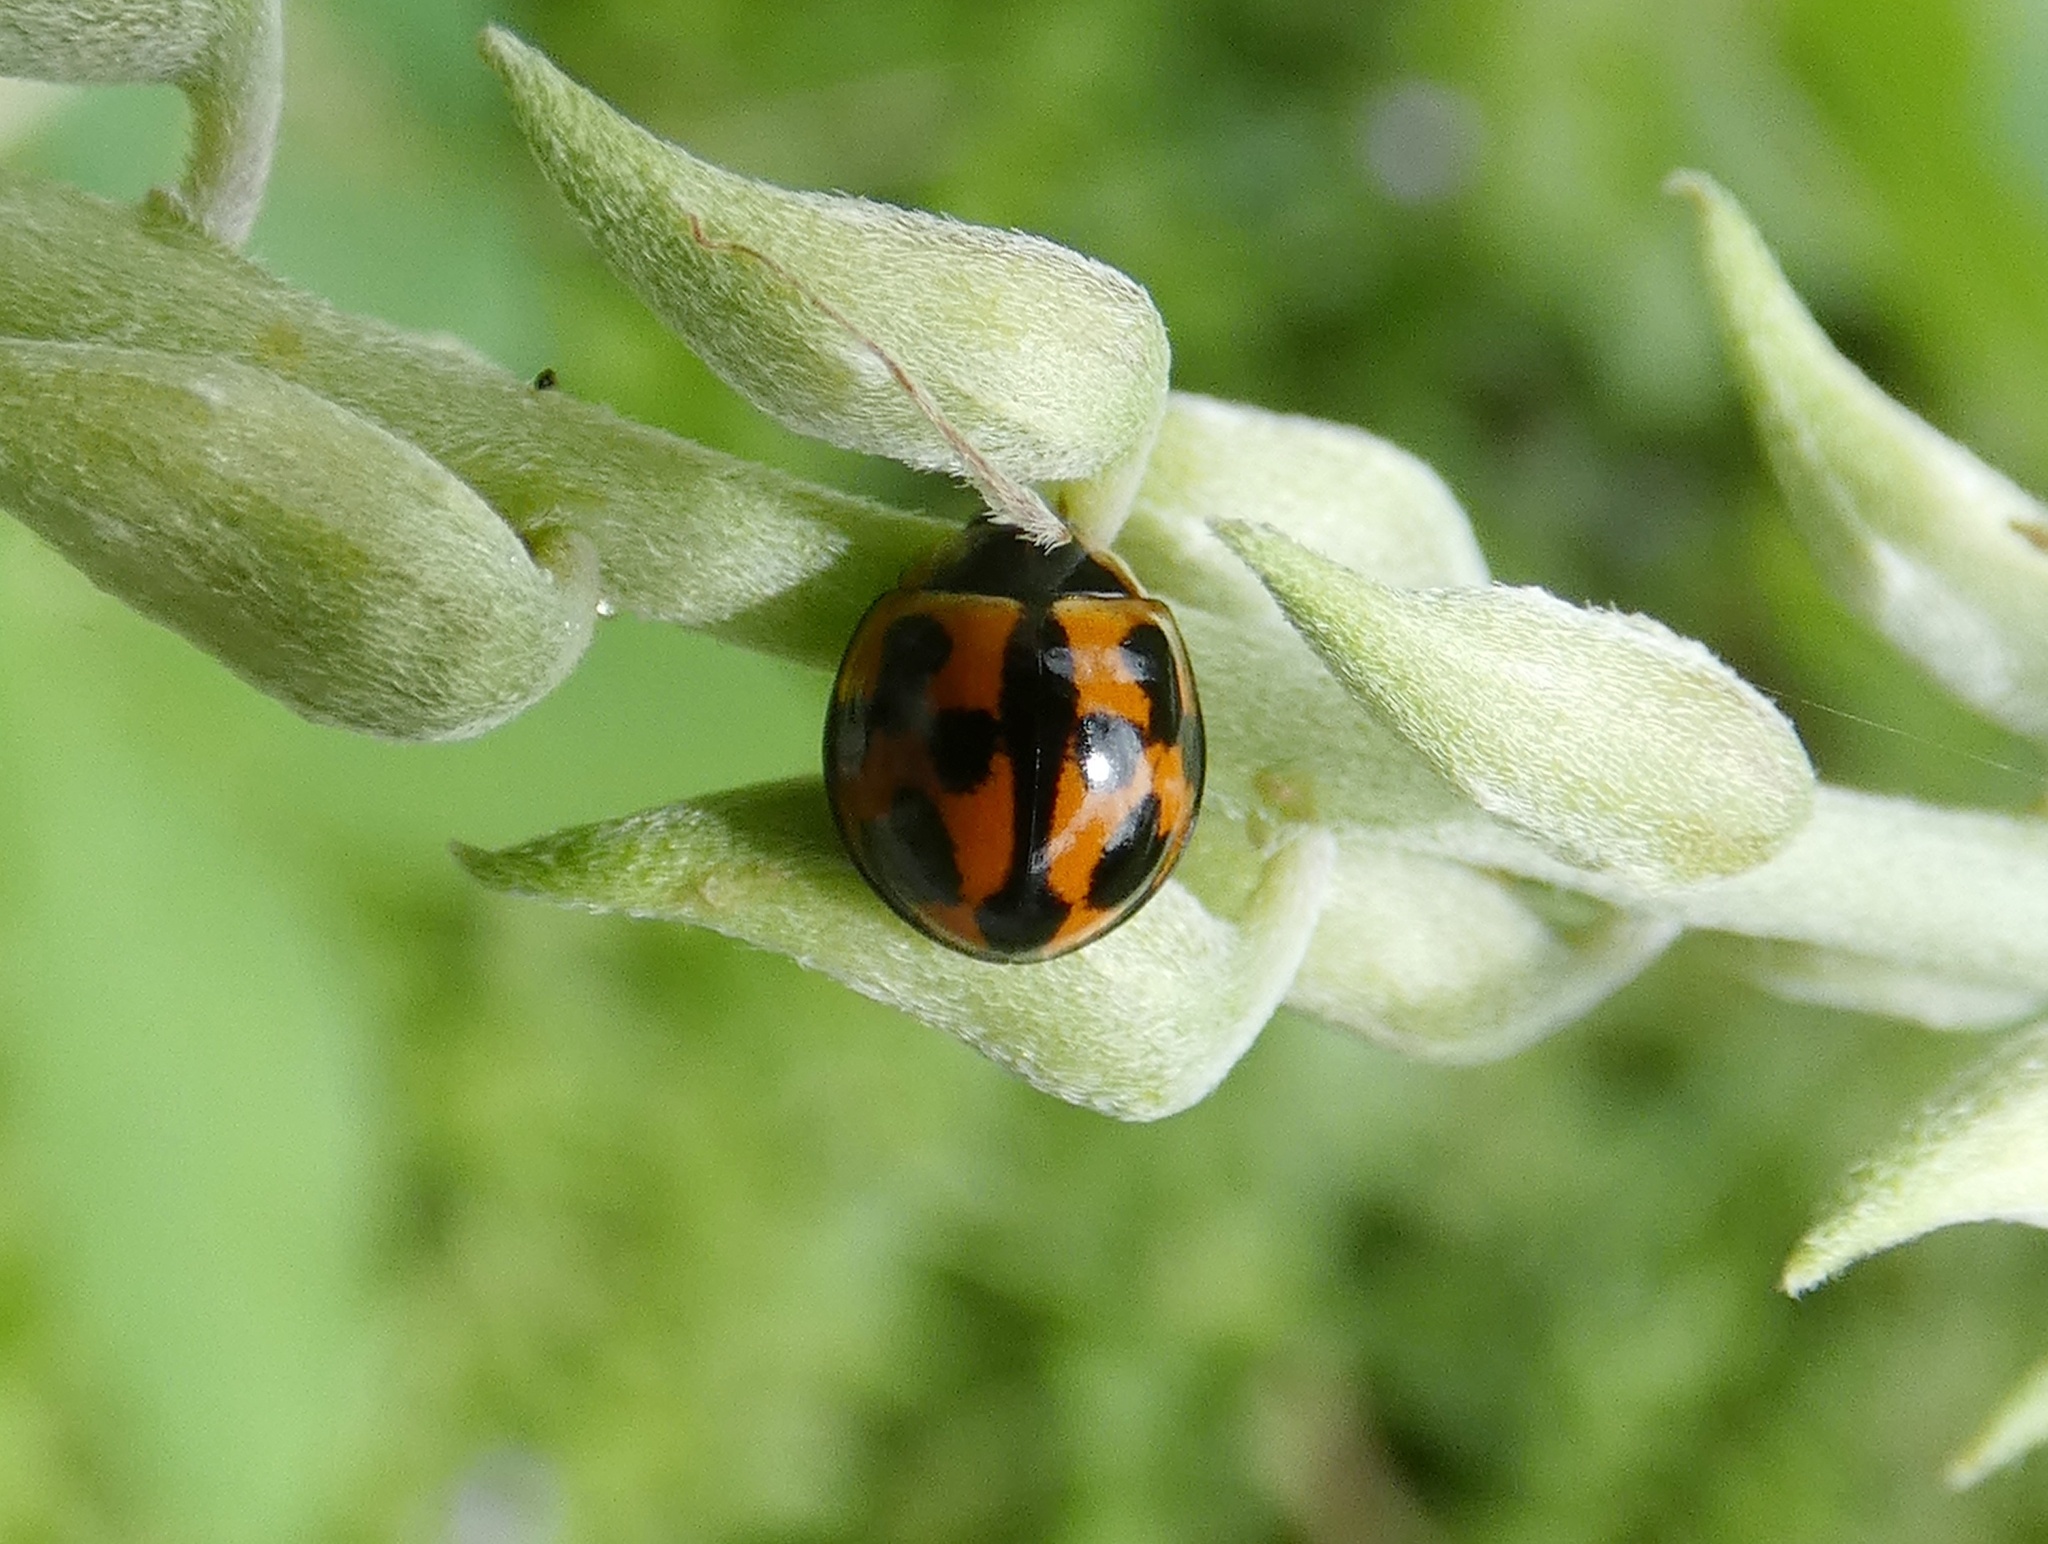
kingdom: Animalia
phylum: Arthropoda
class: Insecta
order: Coleoptera
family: Coccinellidae
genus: Coelophora
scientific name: Coelophora inaequalis
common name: Common australian lady beetle
